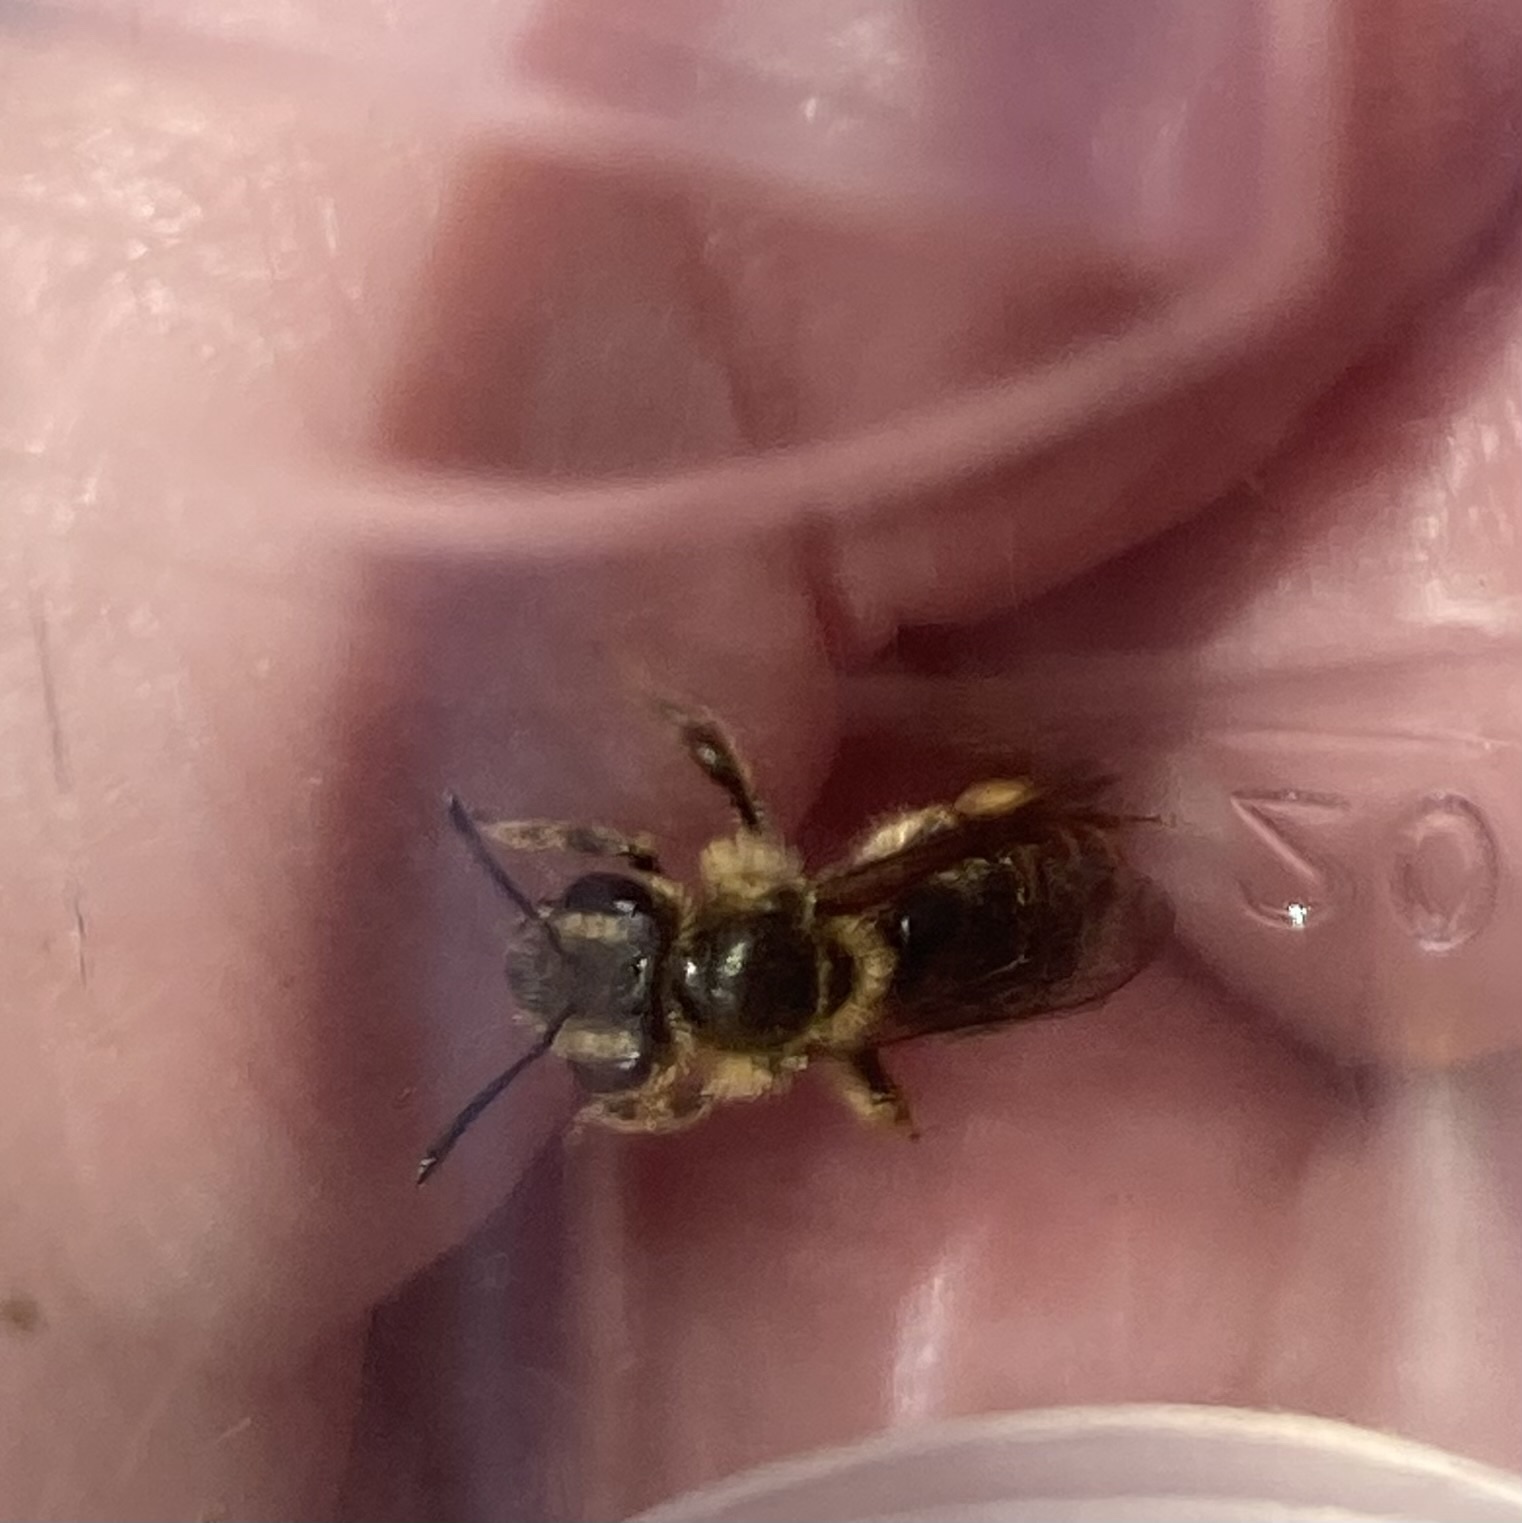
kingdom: Animalia
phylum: Arthropoda
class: Insecta
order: Hymenoptera
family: Andrenidae
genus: Andrena
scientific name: Andrena violae
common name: Violet miner
